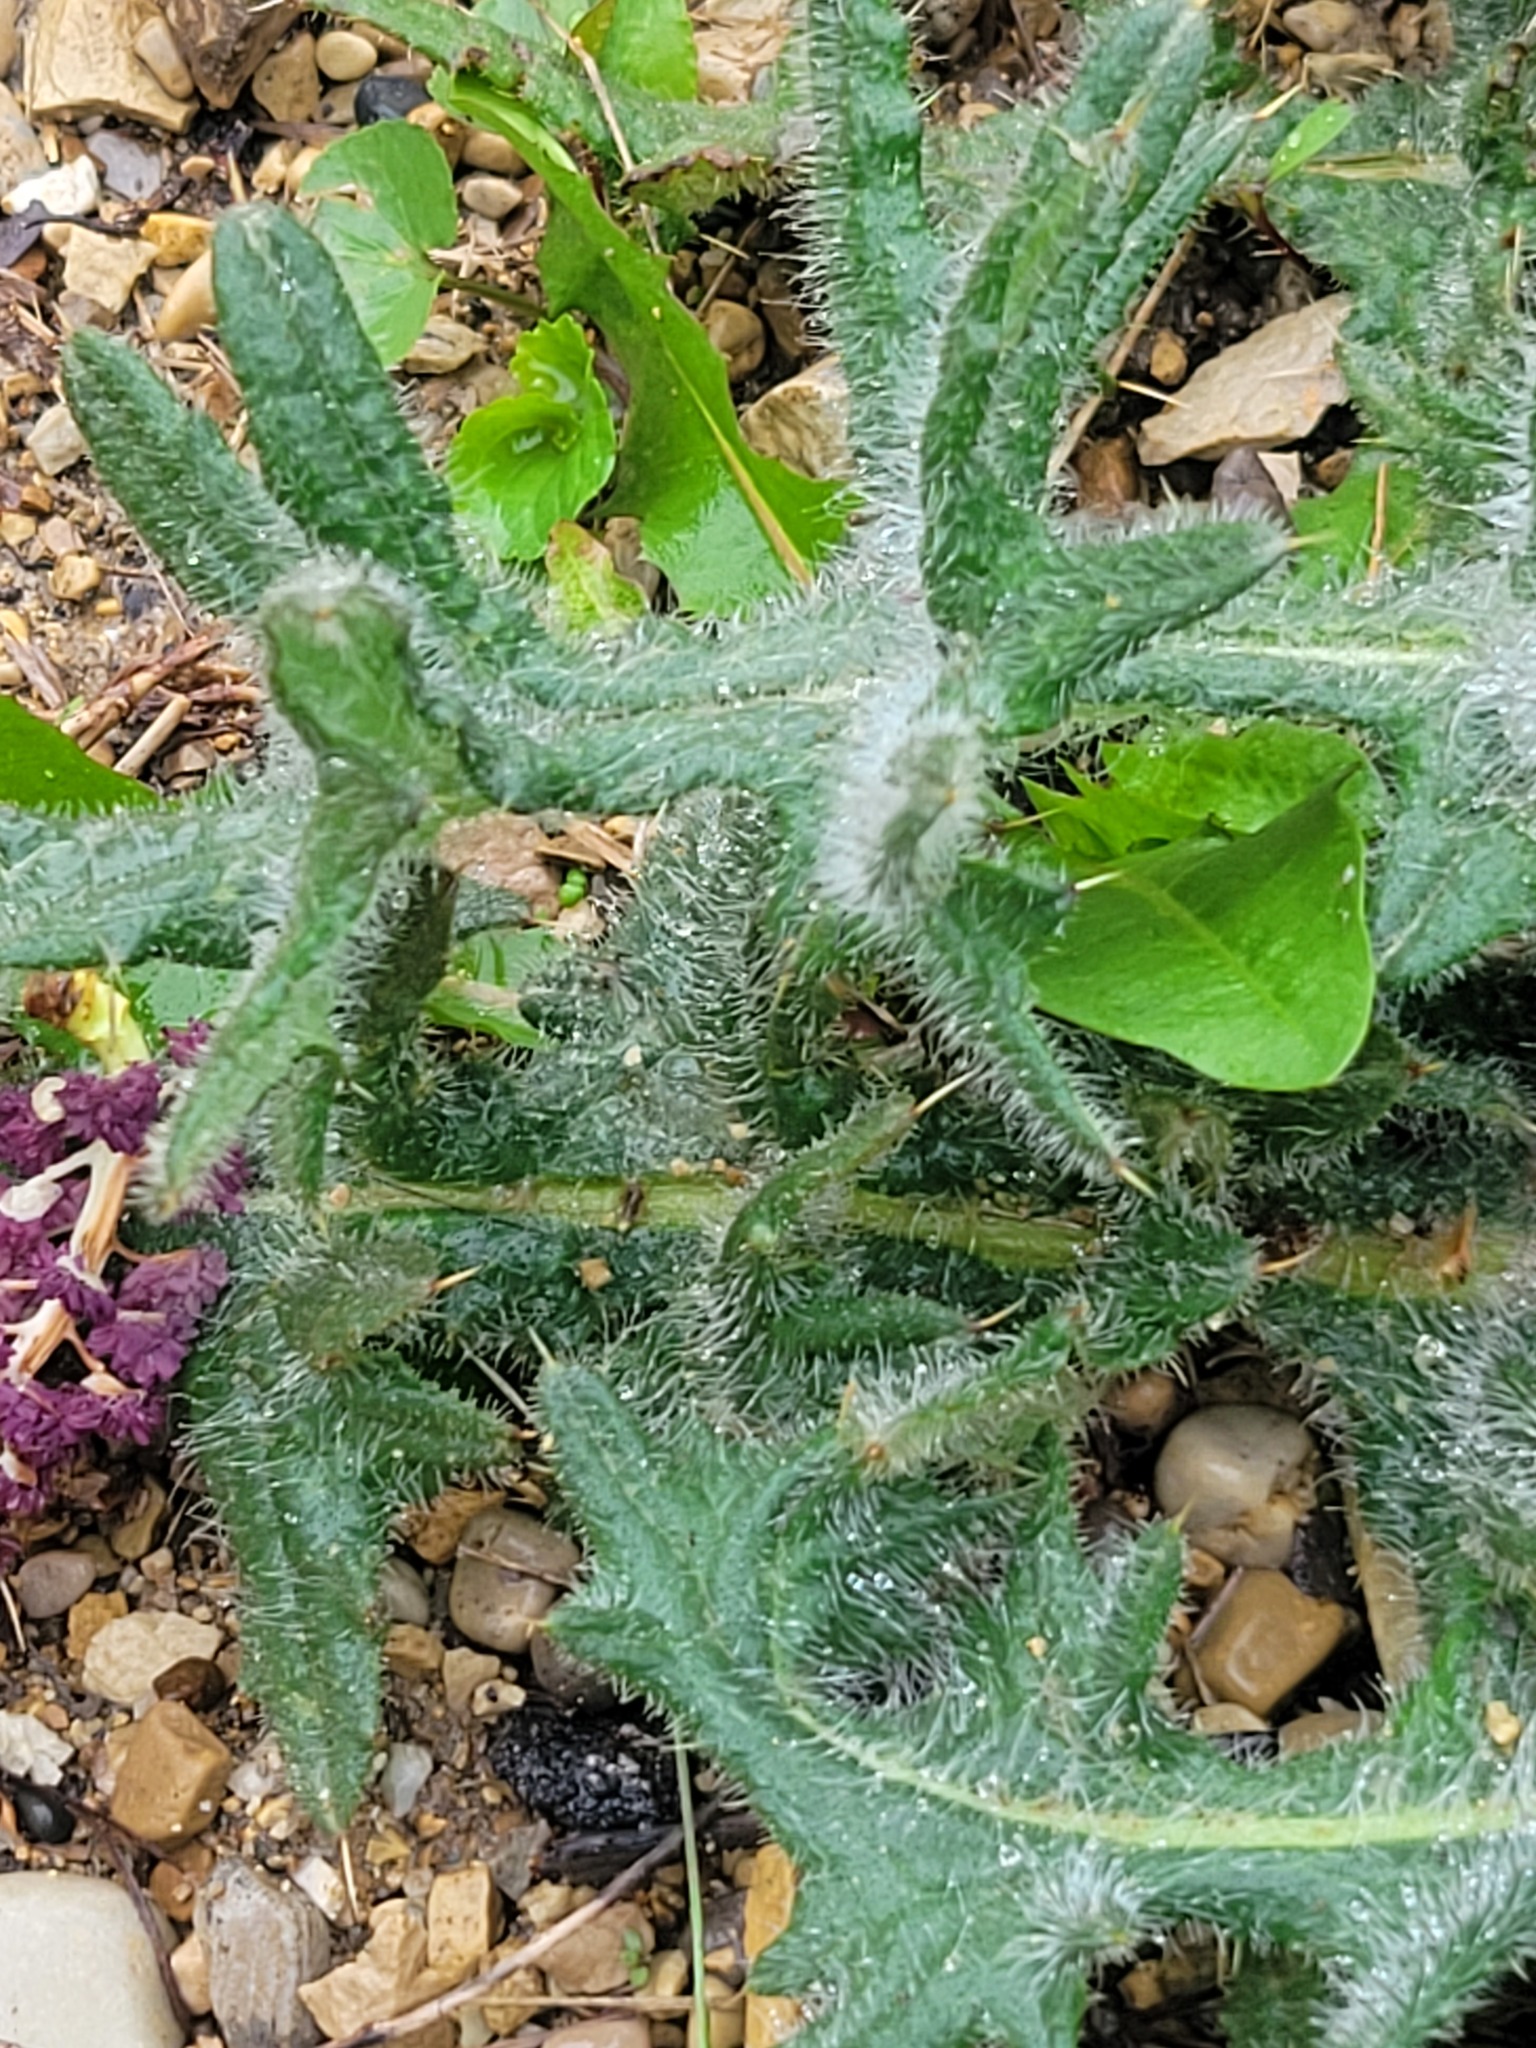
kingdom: Plantae
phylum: Tracheophyta
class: Magnoliopsida
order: Asterales
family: Asteraceae
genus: Cirsium
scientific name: Cirsium vulgare
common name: Bull thistle
